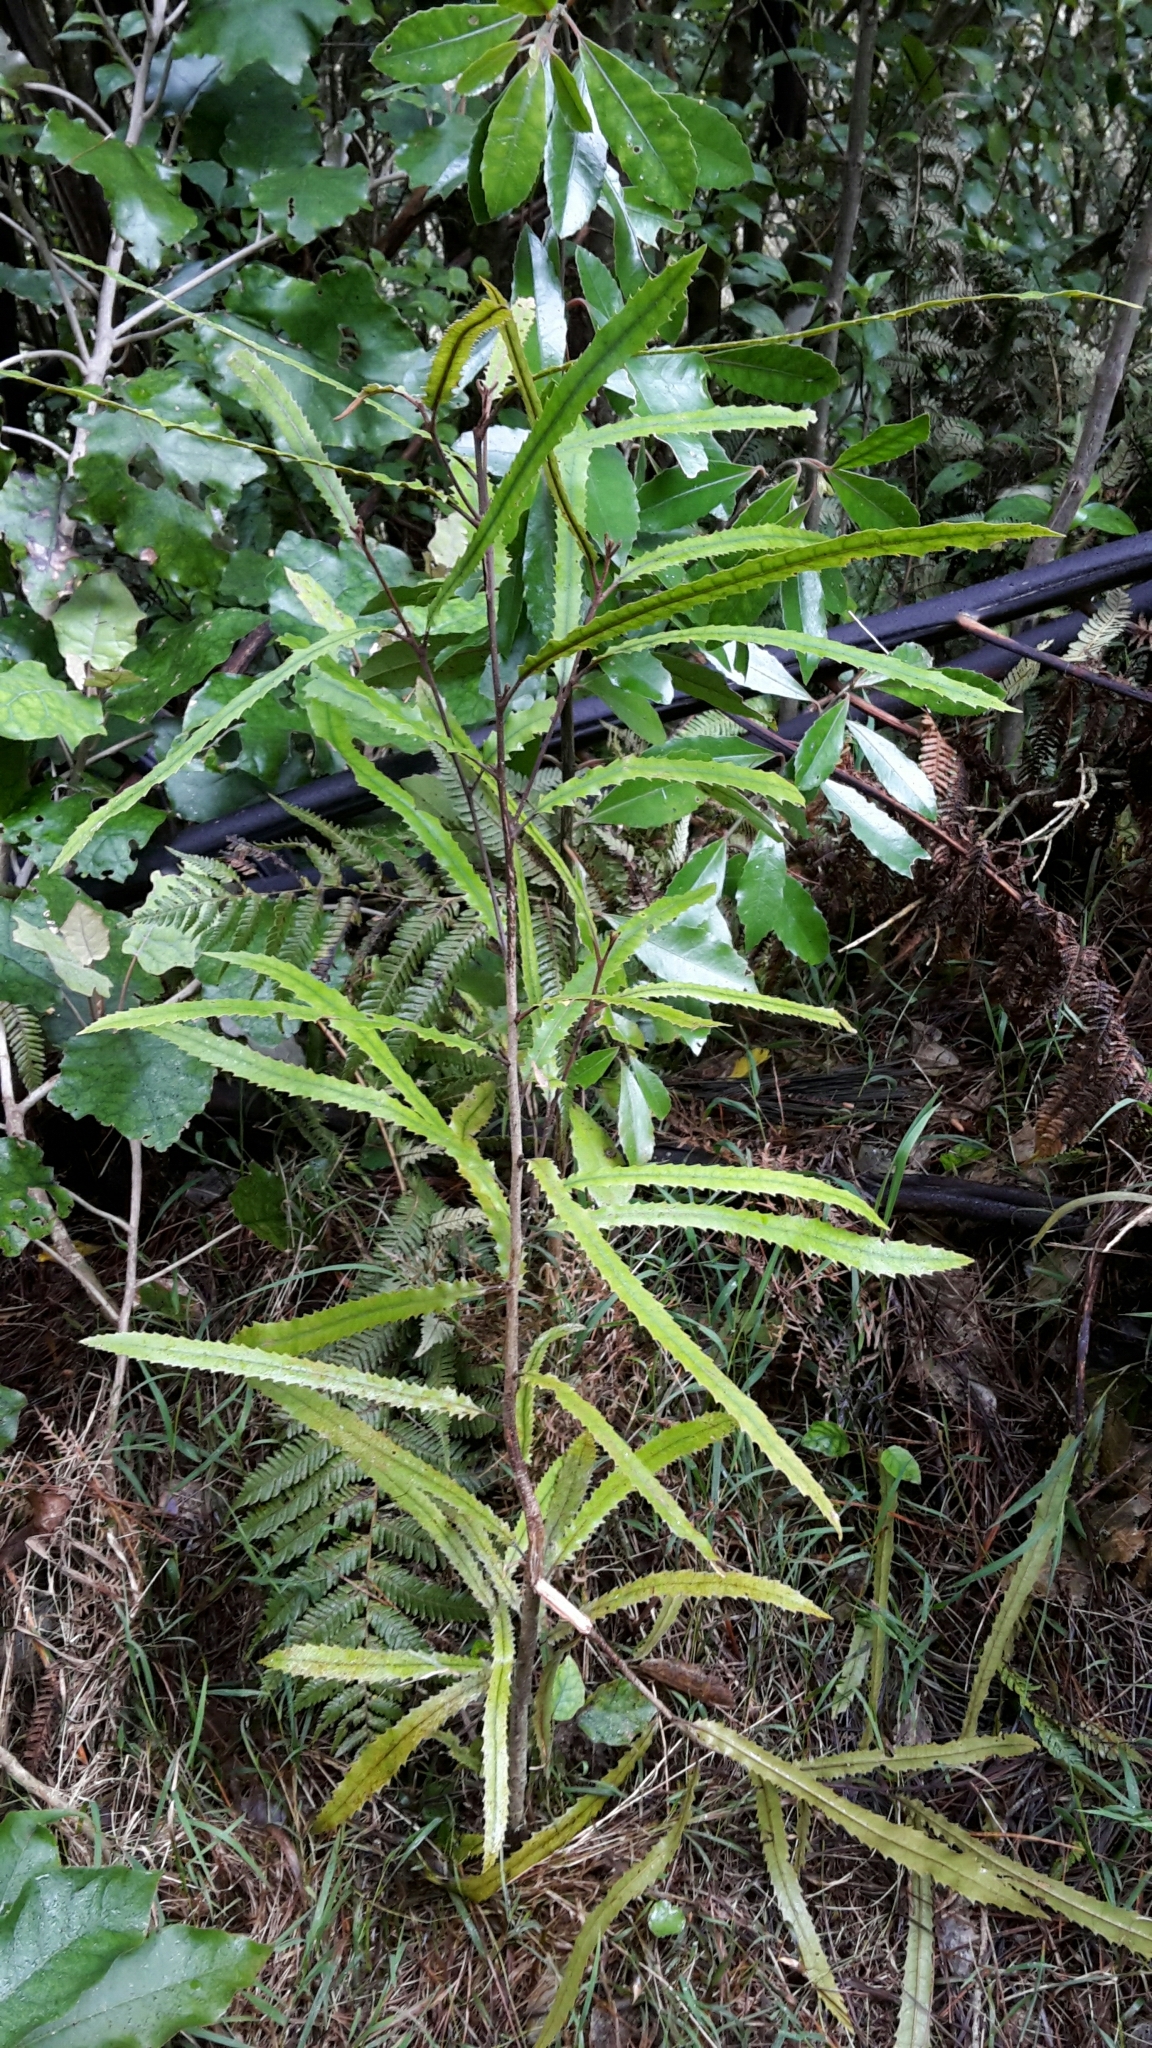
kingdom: Plantae
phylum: Tracheophyta
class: Magnoliopsida
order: Proteales
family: Proteaceae
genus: Knightia
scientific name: Knightia excelsa
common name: New zealand-honeysuckle
